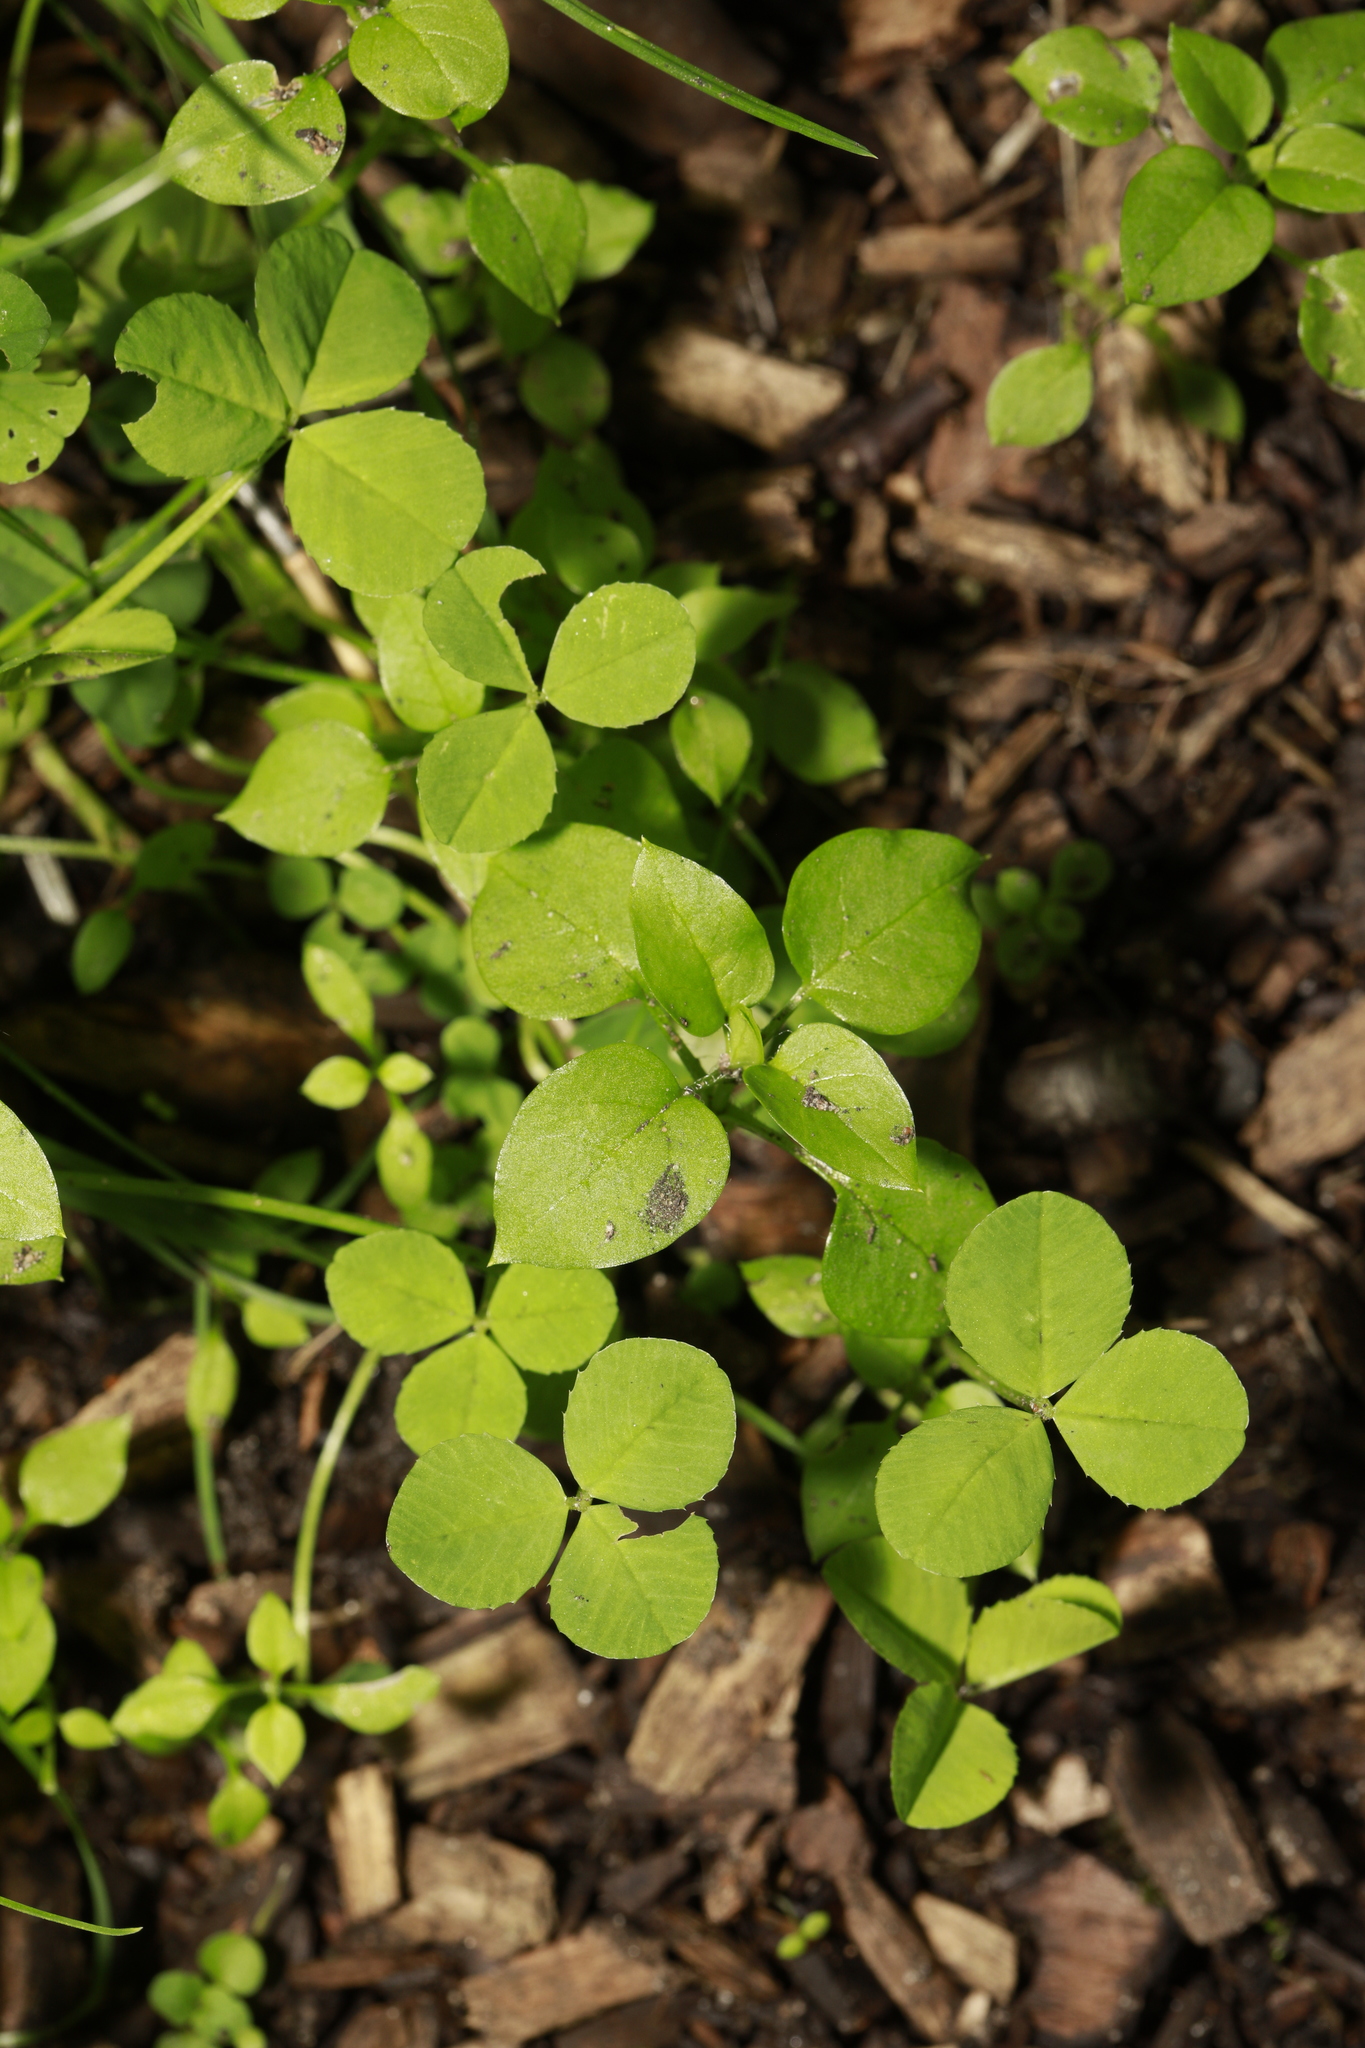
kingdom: Plantae
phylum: Tracheophyta
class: Magnoliopsida
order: Caryophyllales
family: Caryophyllaceae
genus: Stellaria
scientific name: Stellaria media
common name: Common chickweed
